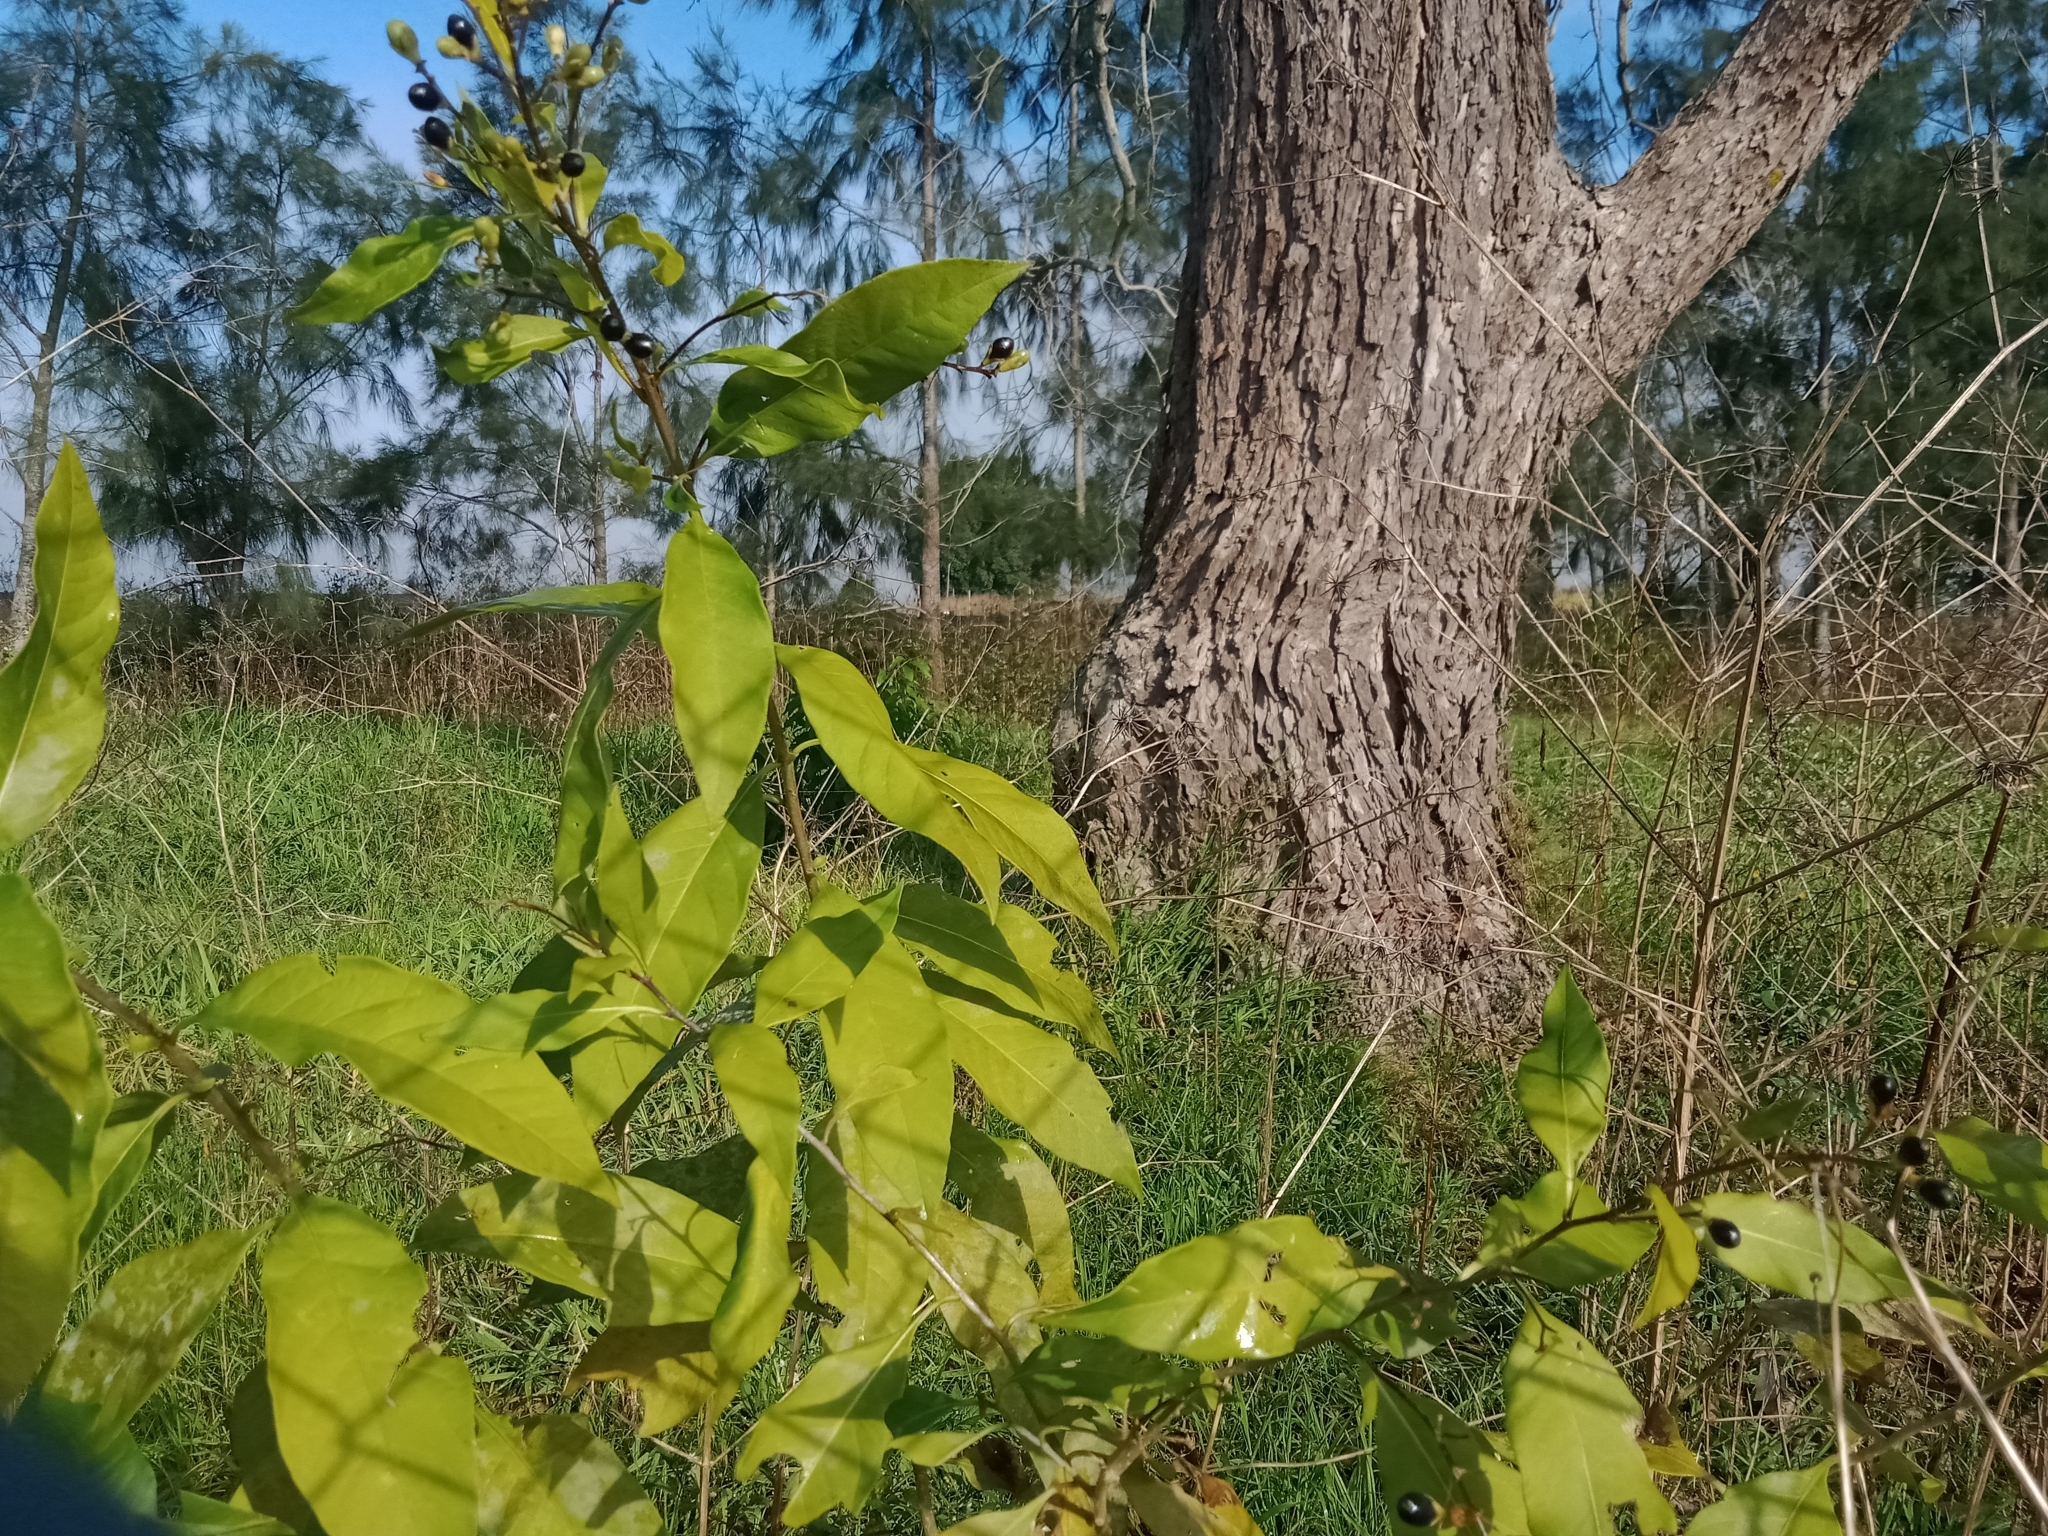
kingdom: Plantae
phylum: Tracheophyta
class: Magnoliopsida
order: Solanales
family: Solanaceae
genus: Cestrum
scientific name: Cestrum parqui
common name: Chilean cestrum
